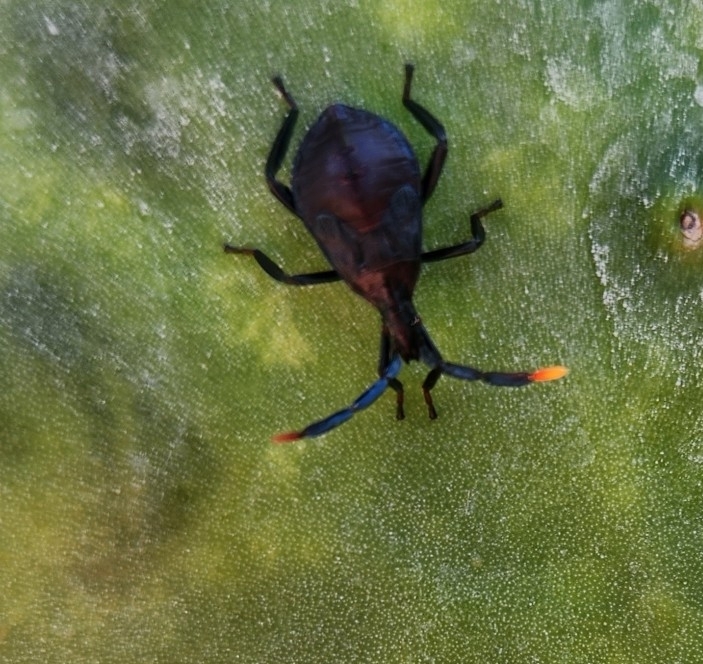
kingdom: Animalia
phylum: Arthropoda
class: Insecta
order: Hemiptera
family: Coreidae
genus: Chelinidea
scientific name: Chelinidea vittiger
